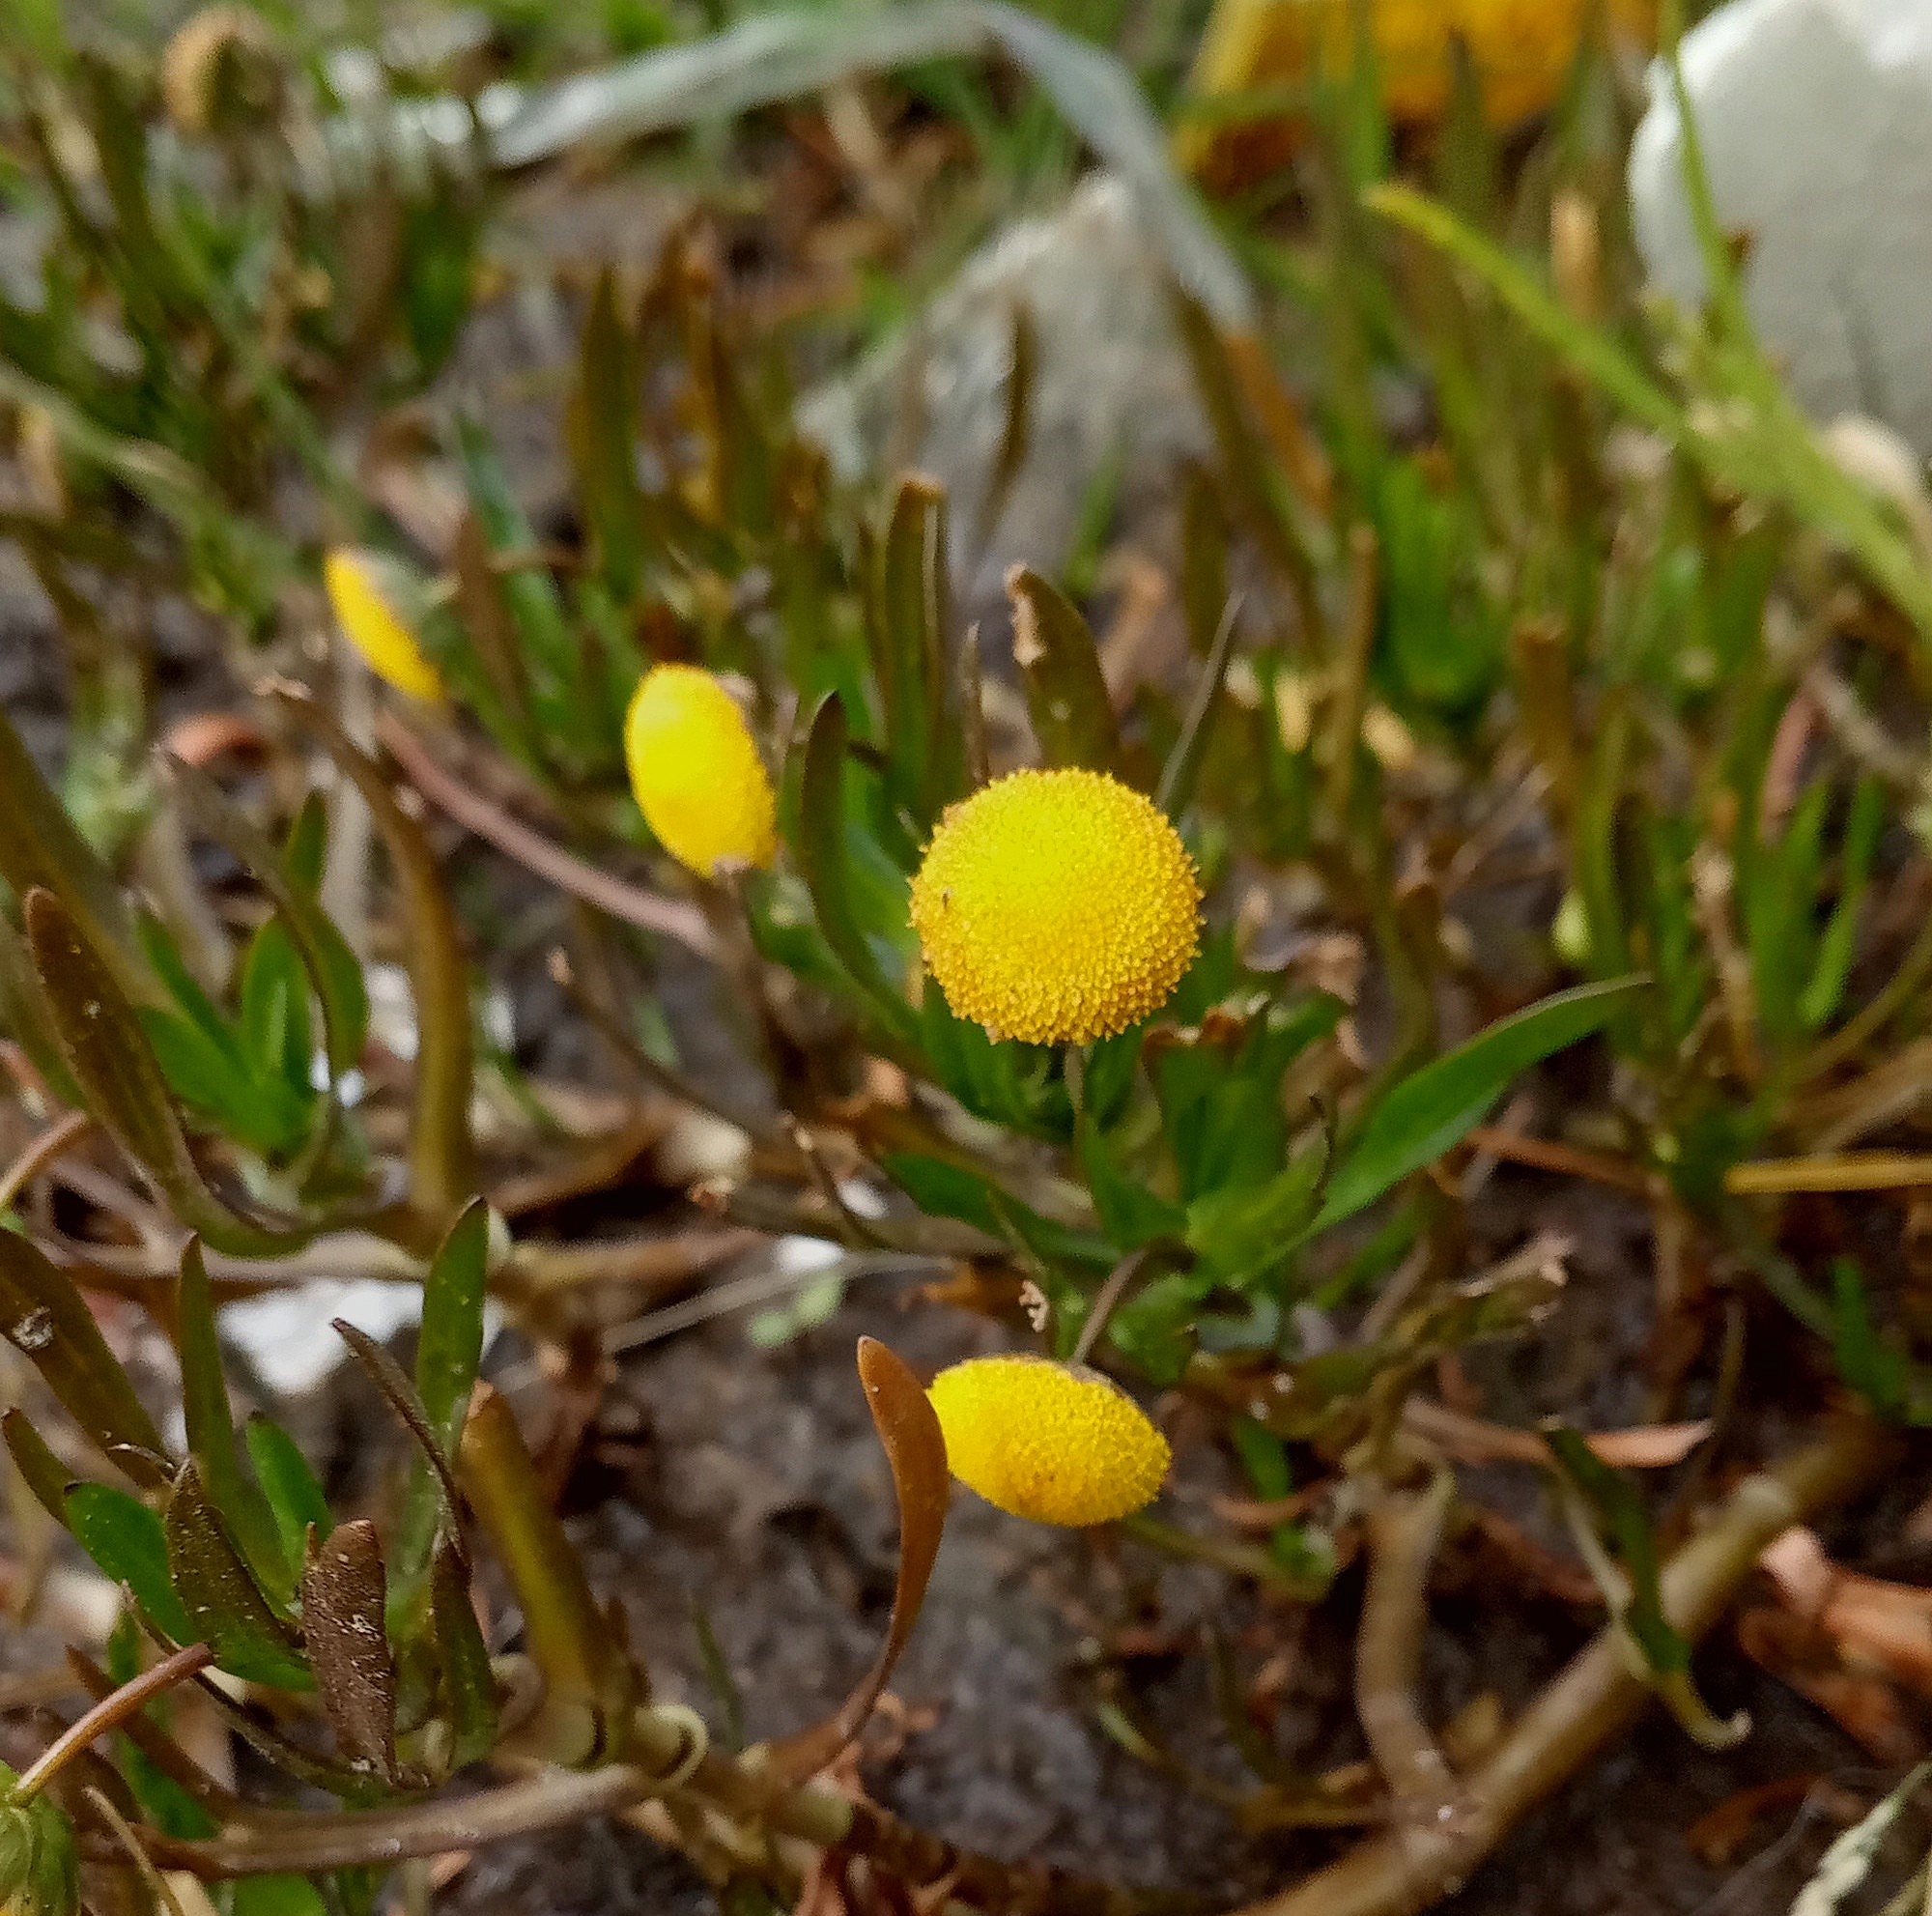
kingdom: Plantae
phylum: Tracheophyta
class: Magnoliopsida
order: Asterales
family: Asteraceae
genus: Cotula
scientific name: Cotula coronopifolia
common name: Buttonweed
